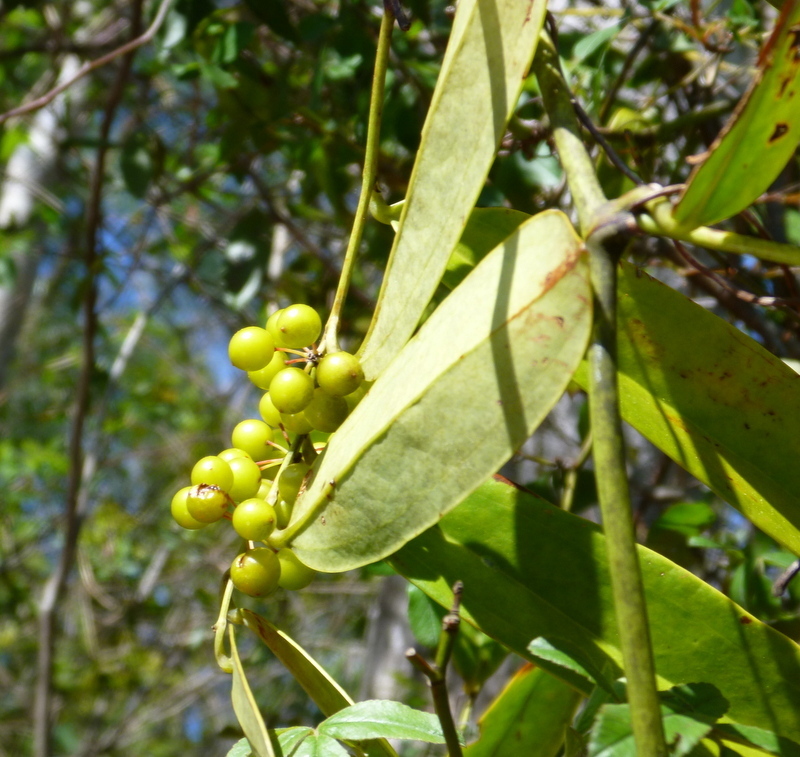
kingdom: Plantae
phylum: Tracheophyta
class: Liliopsida
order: Liliales
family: Smilacaceae
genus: Smilax
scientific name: Smilax laurifolia
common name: Bamboovine
